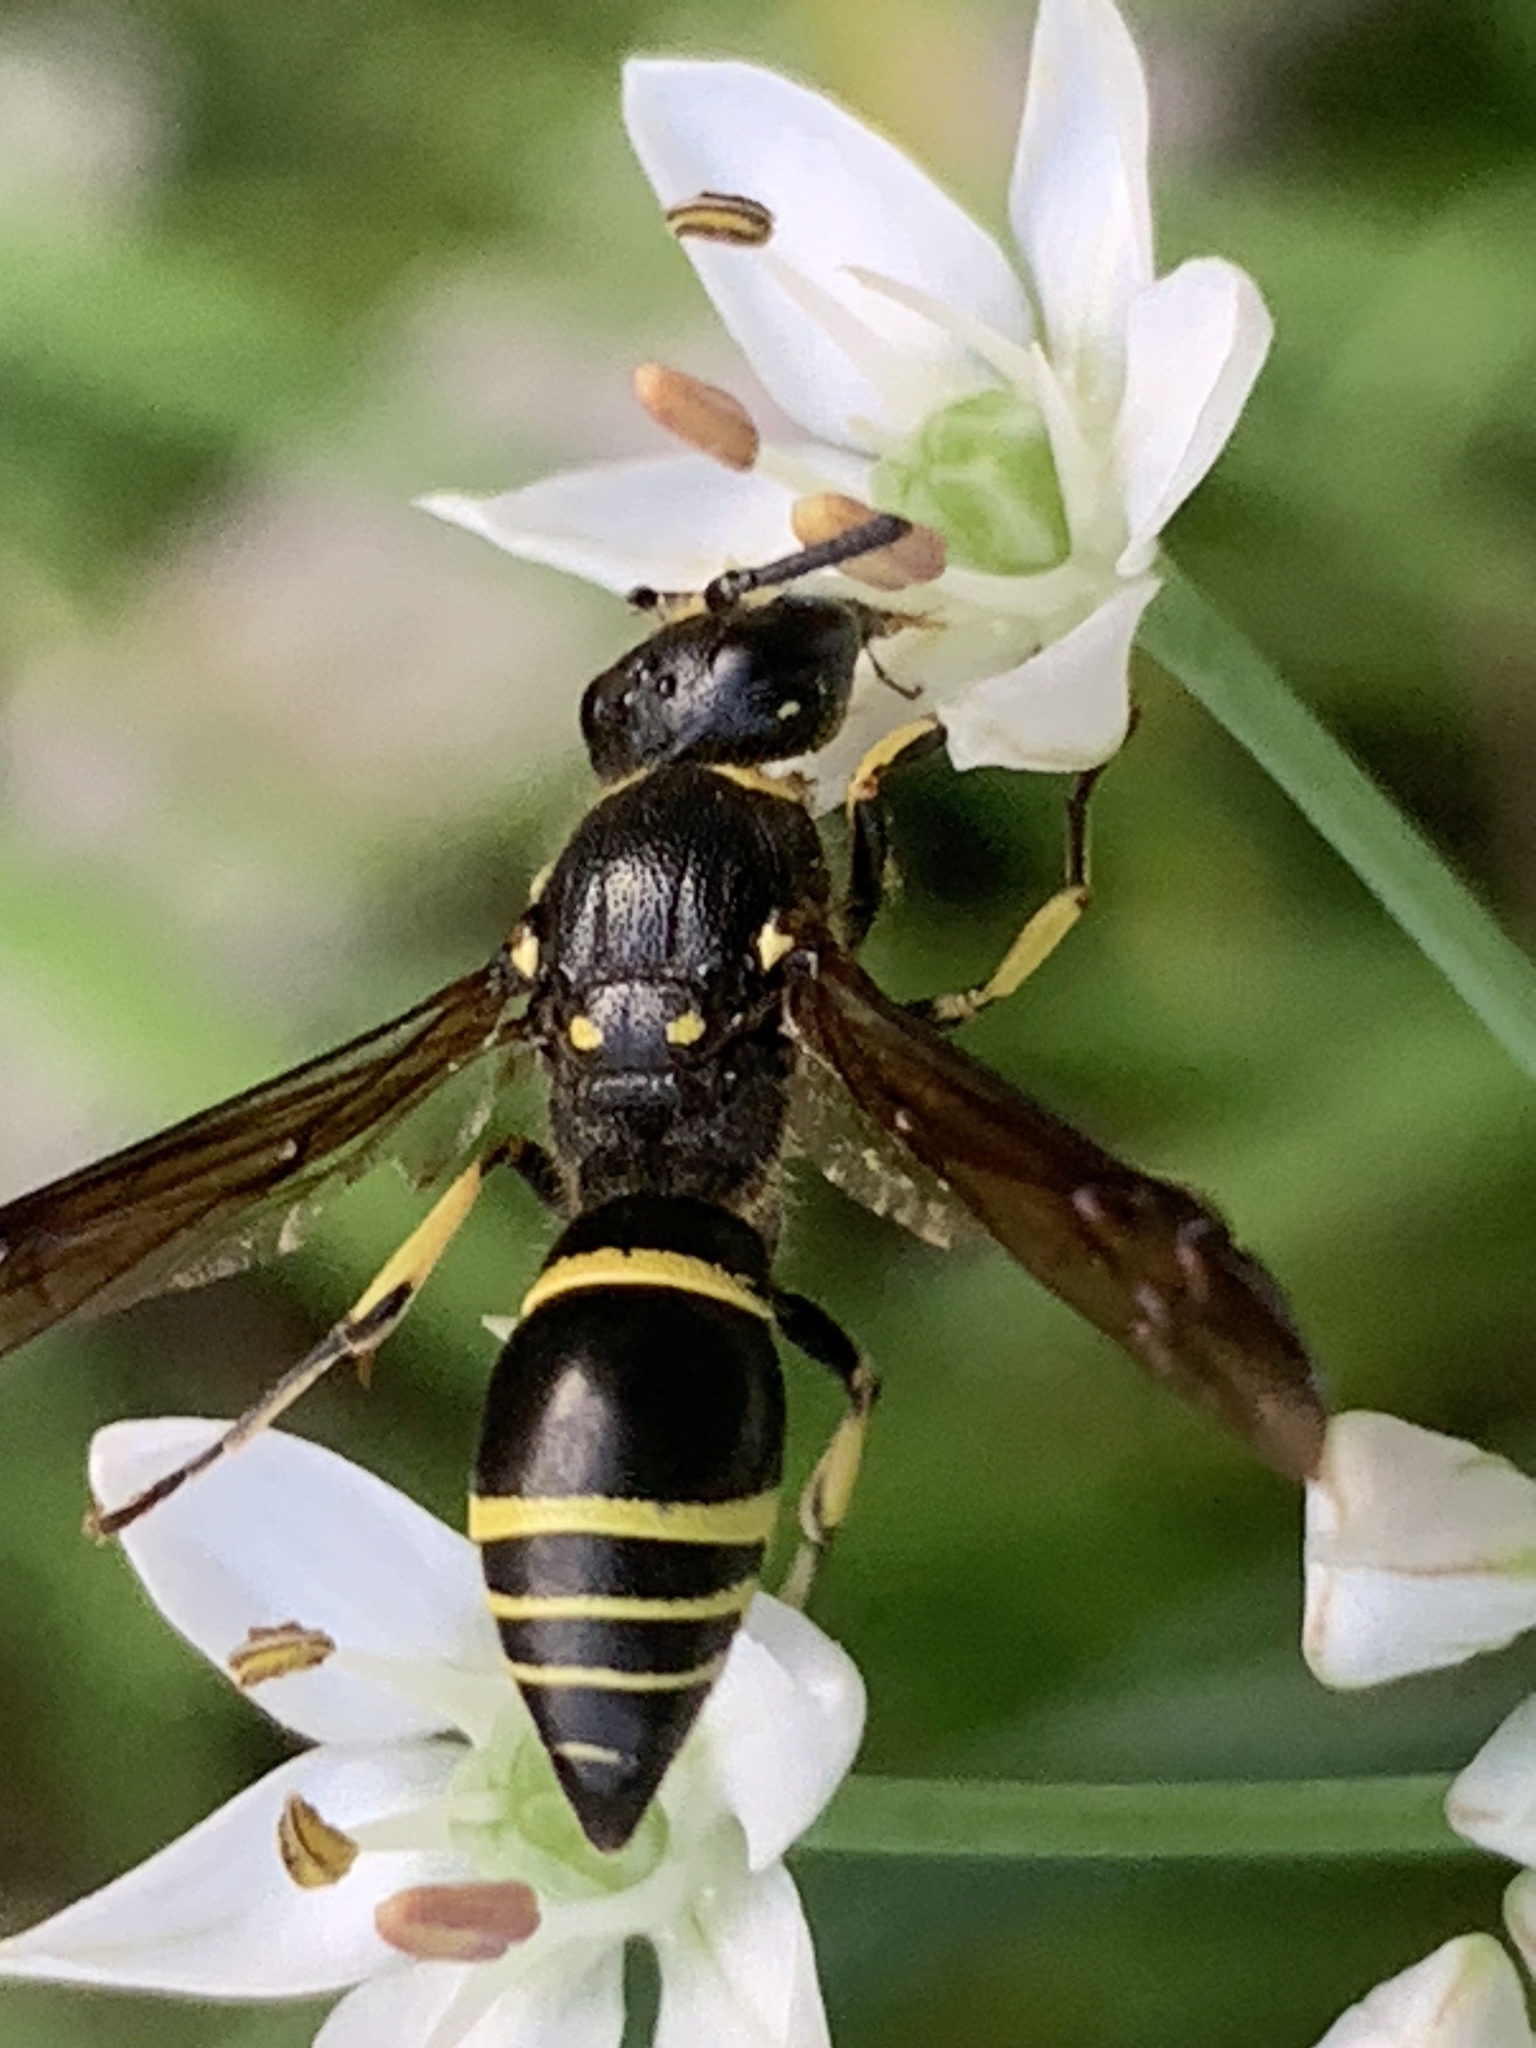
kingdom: Animalia
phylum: Arthropoda
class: Insecta
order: Hymenoptera
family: Vespidae
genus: Ancistrocerus
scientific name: Ancistrocerus
